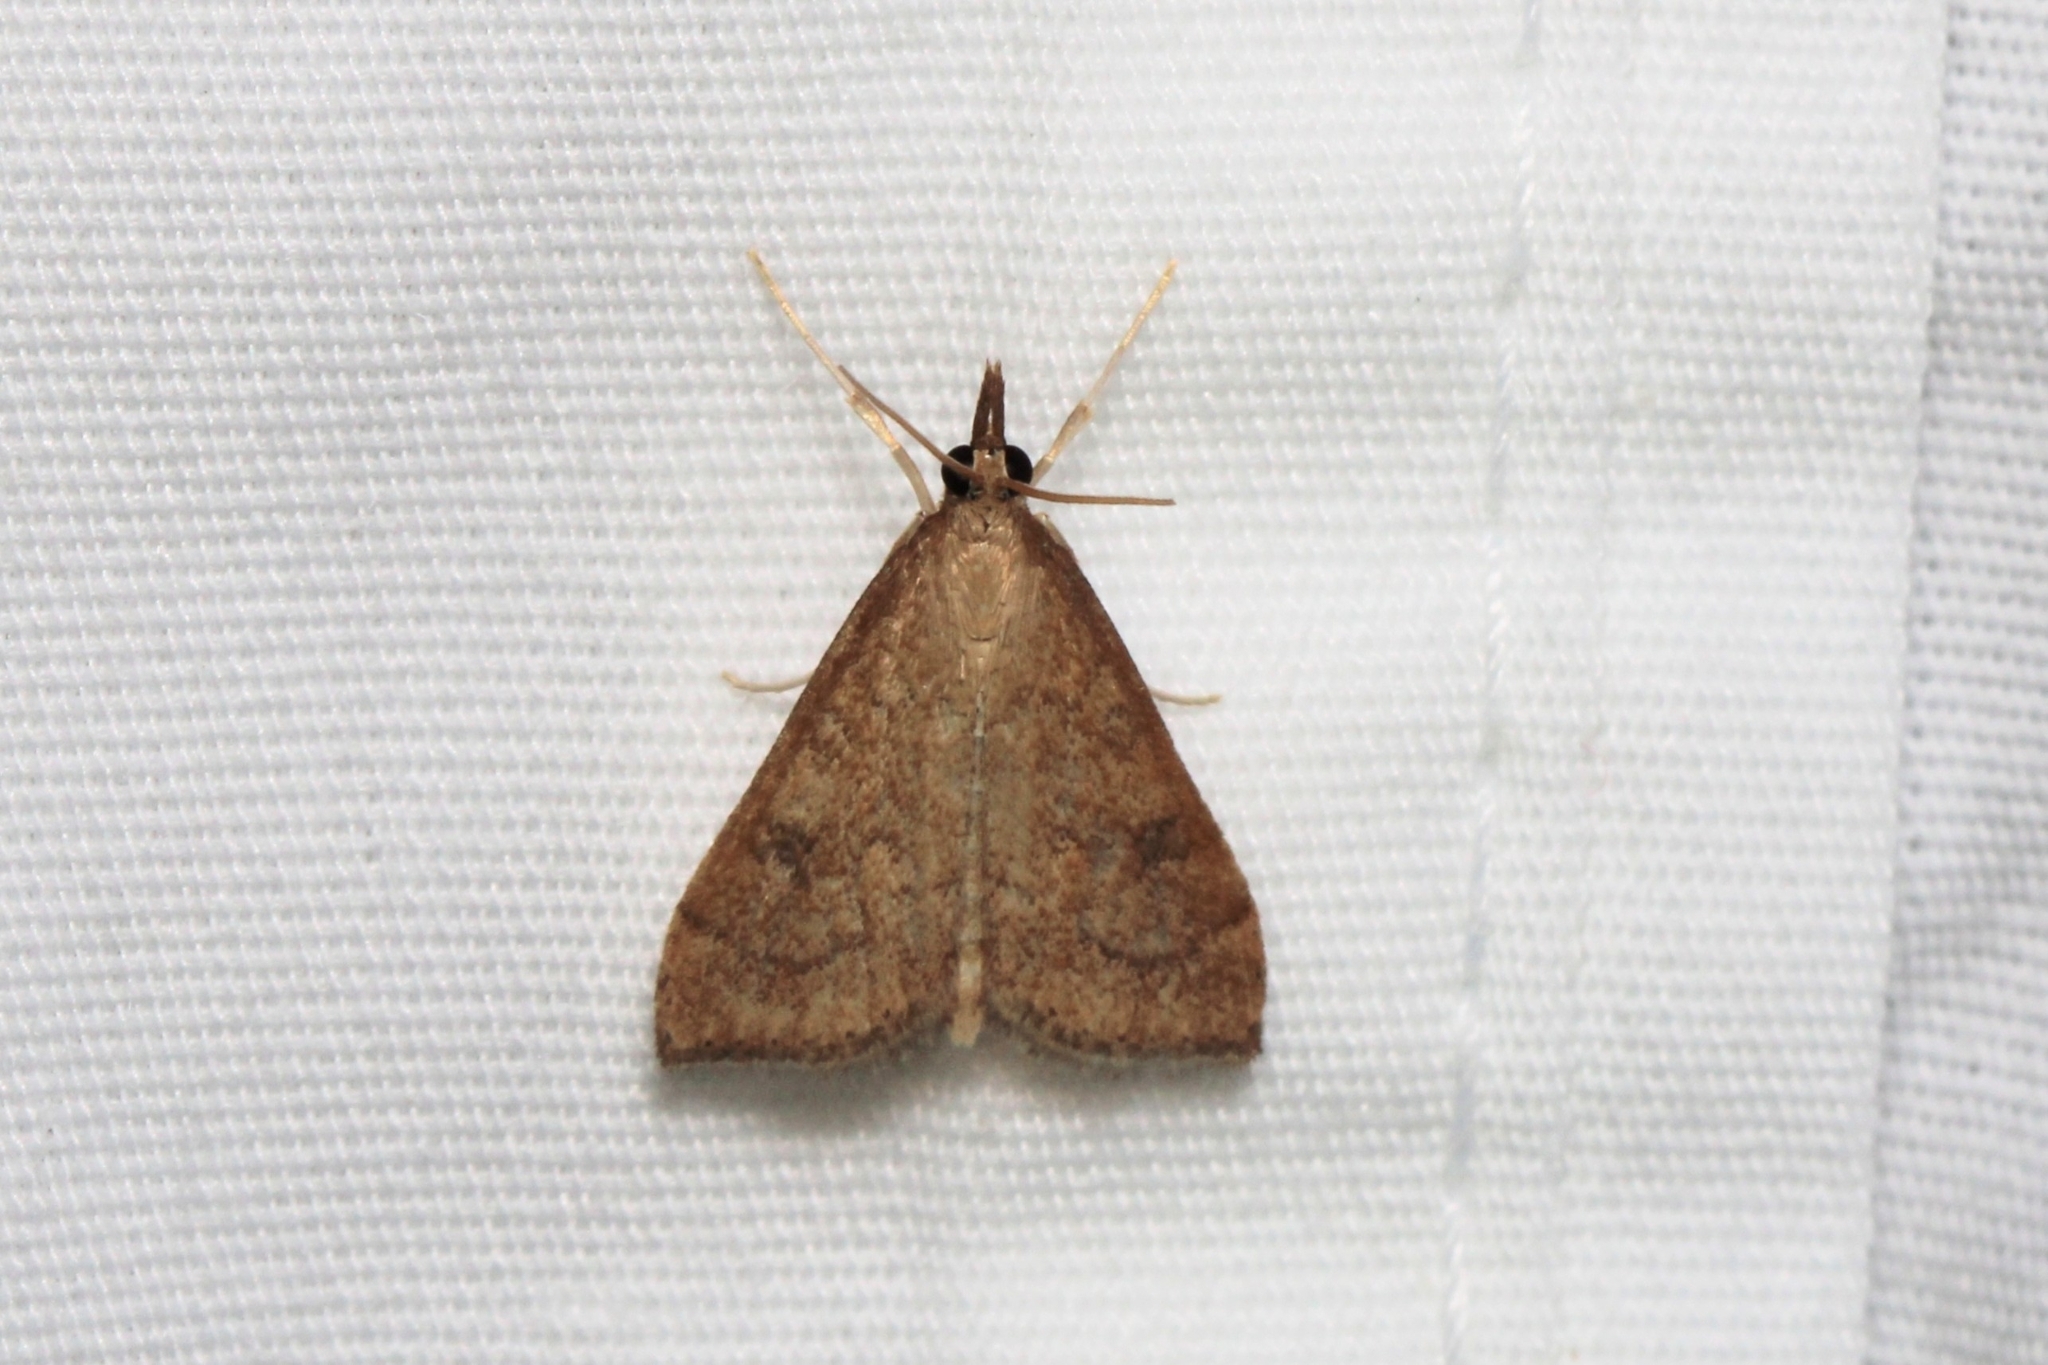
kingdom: Animalia
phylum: Arthropoda
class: Insecta
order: Lepidoptera
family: Crambidae
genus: Udea
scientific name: Udea rubigalis
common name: Celery leaftier moth
